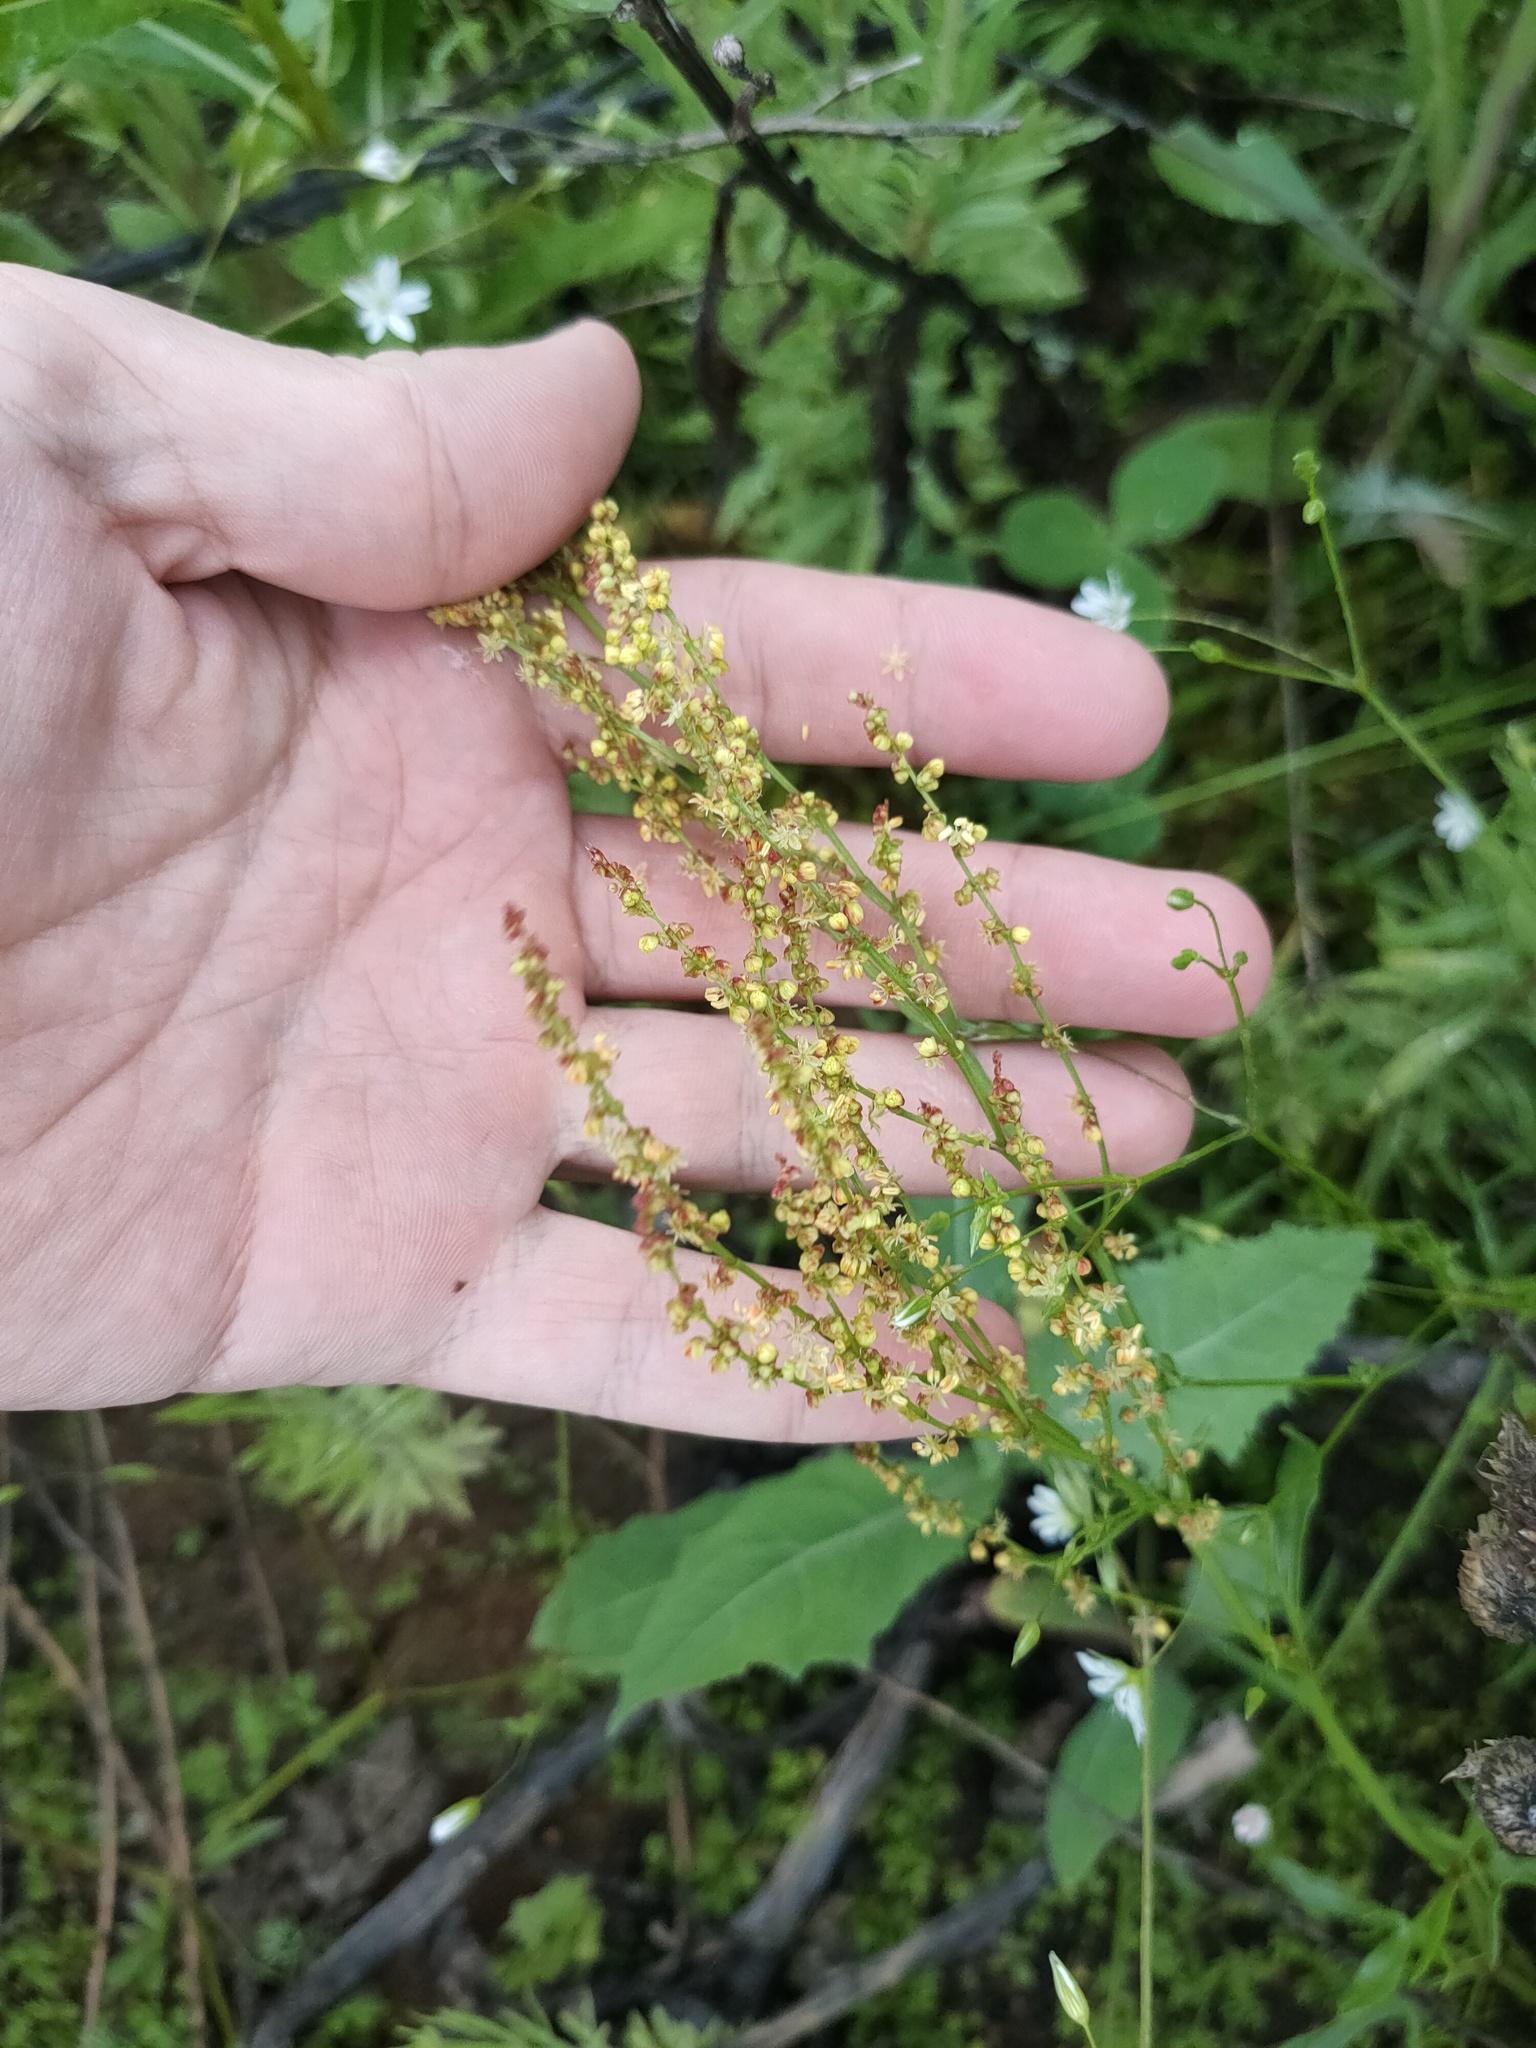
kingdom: Plantae
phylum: Tracheophyta
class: Magnoliopsida
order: Caryophyllales
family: Polygonaceae
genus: Rumex
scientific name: Rumex acetosella
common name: Common sheep sorrel
